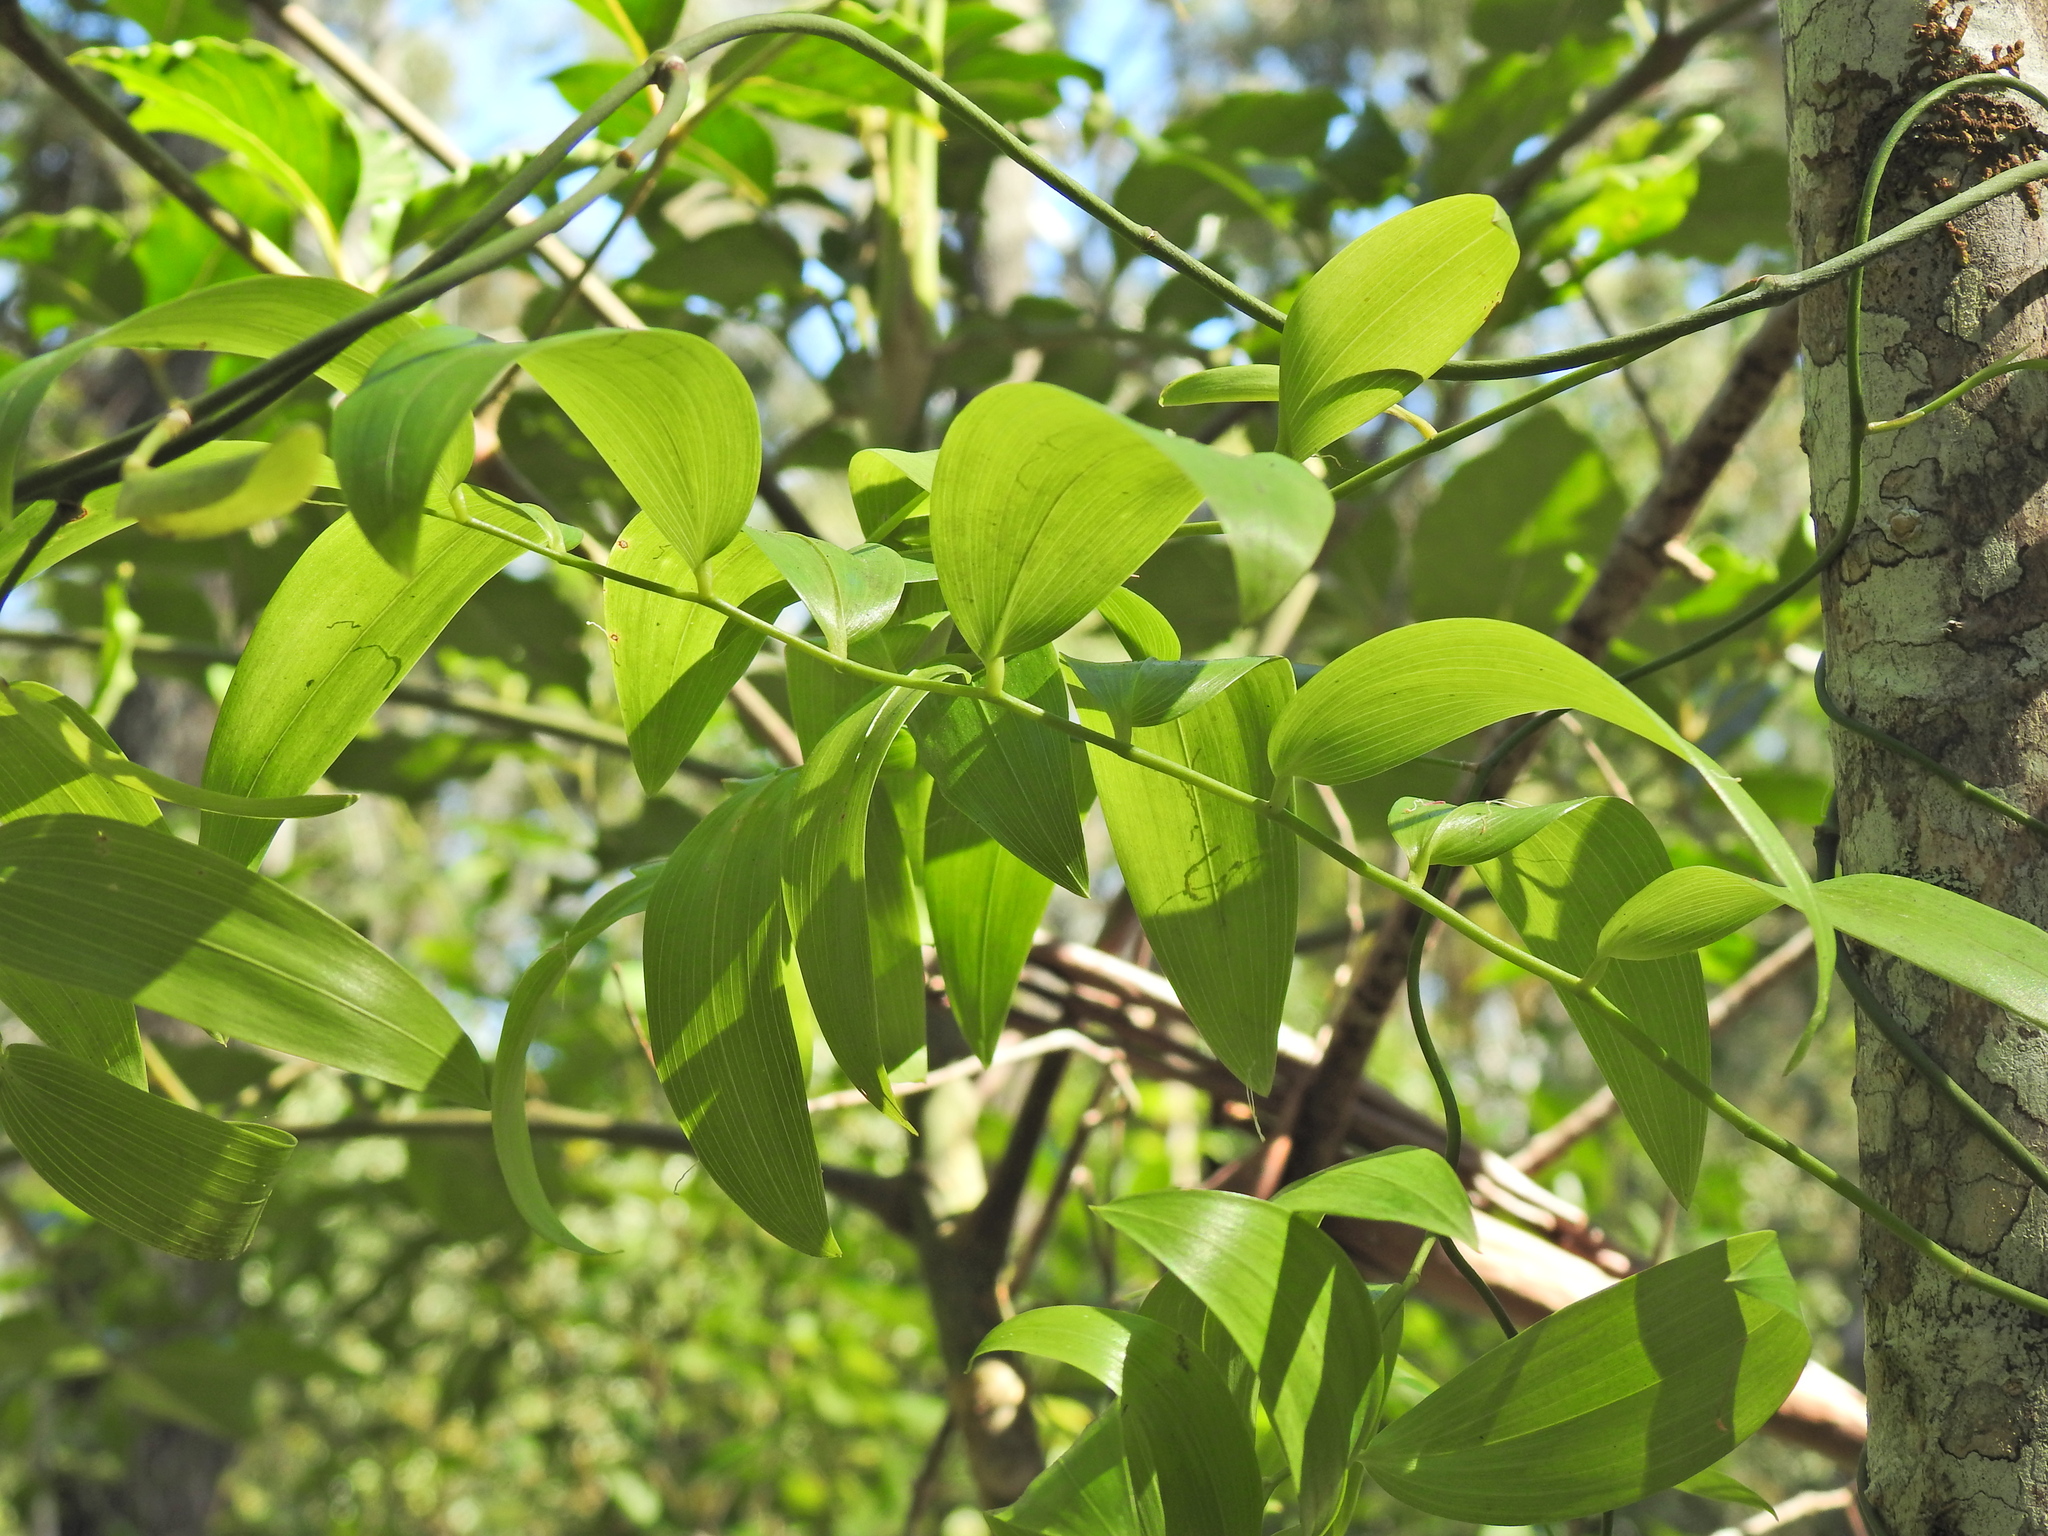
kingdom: Plantae
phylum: Tracheophyta
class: Liliopsida
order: Asparagales
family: Asphodelaceae
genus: Geitonoplesium
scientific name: Geitonoplesium cymosum
